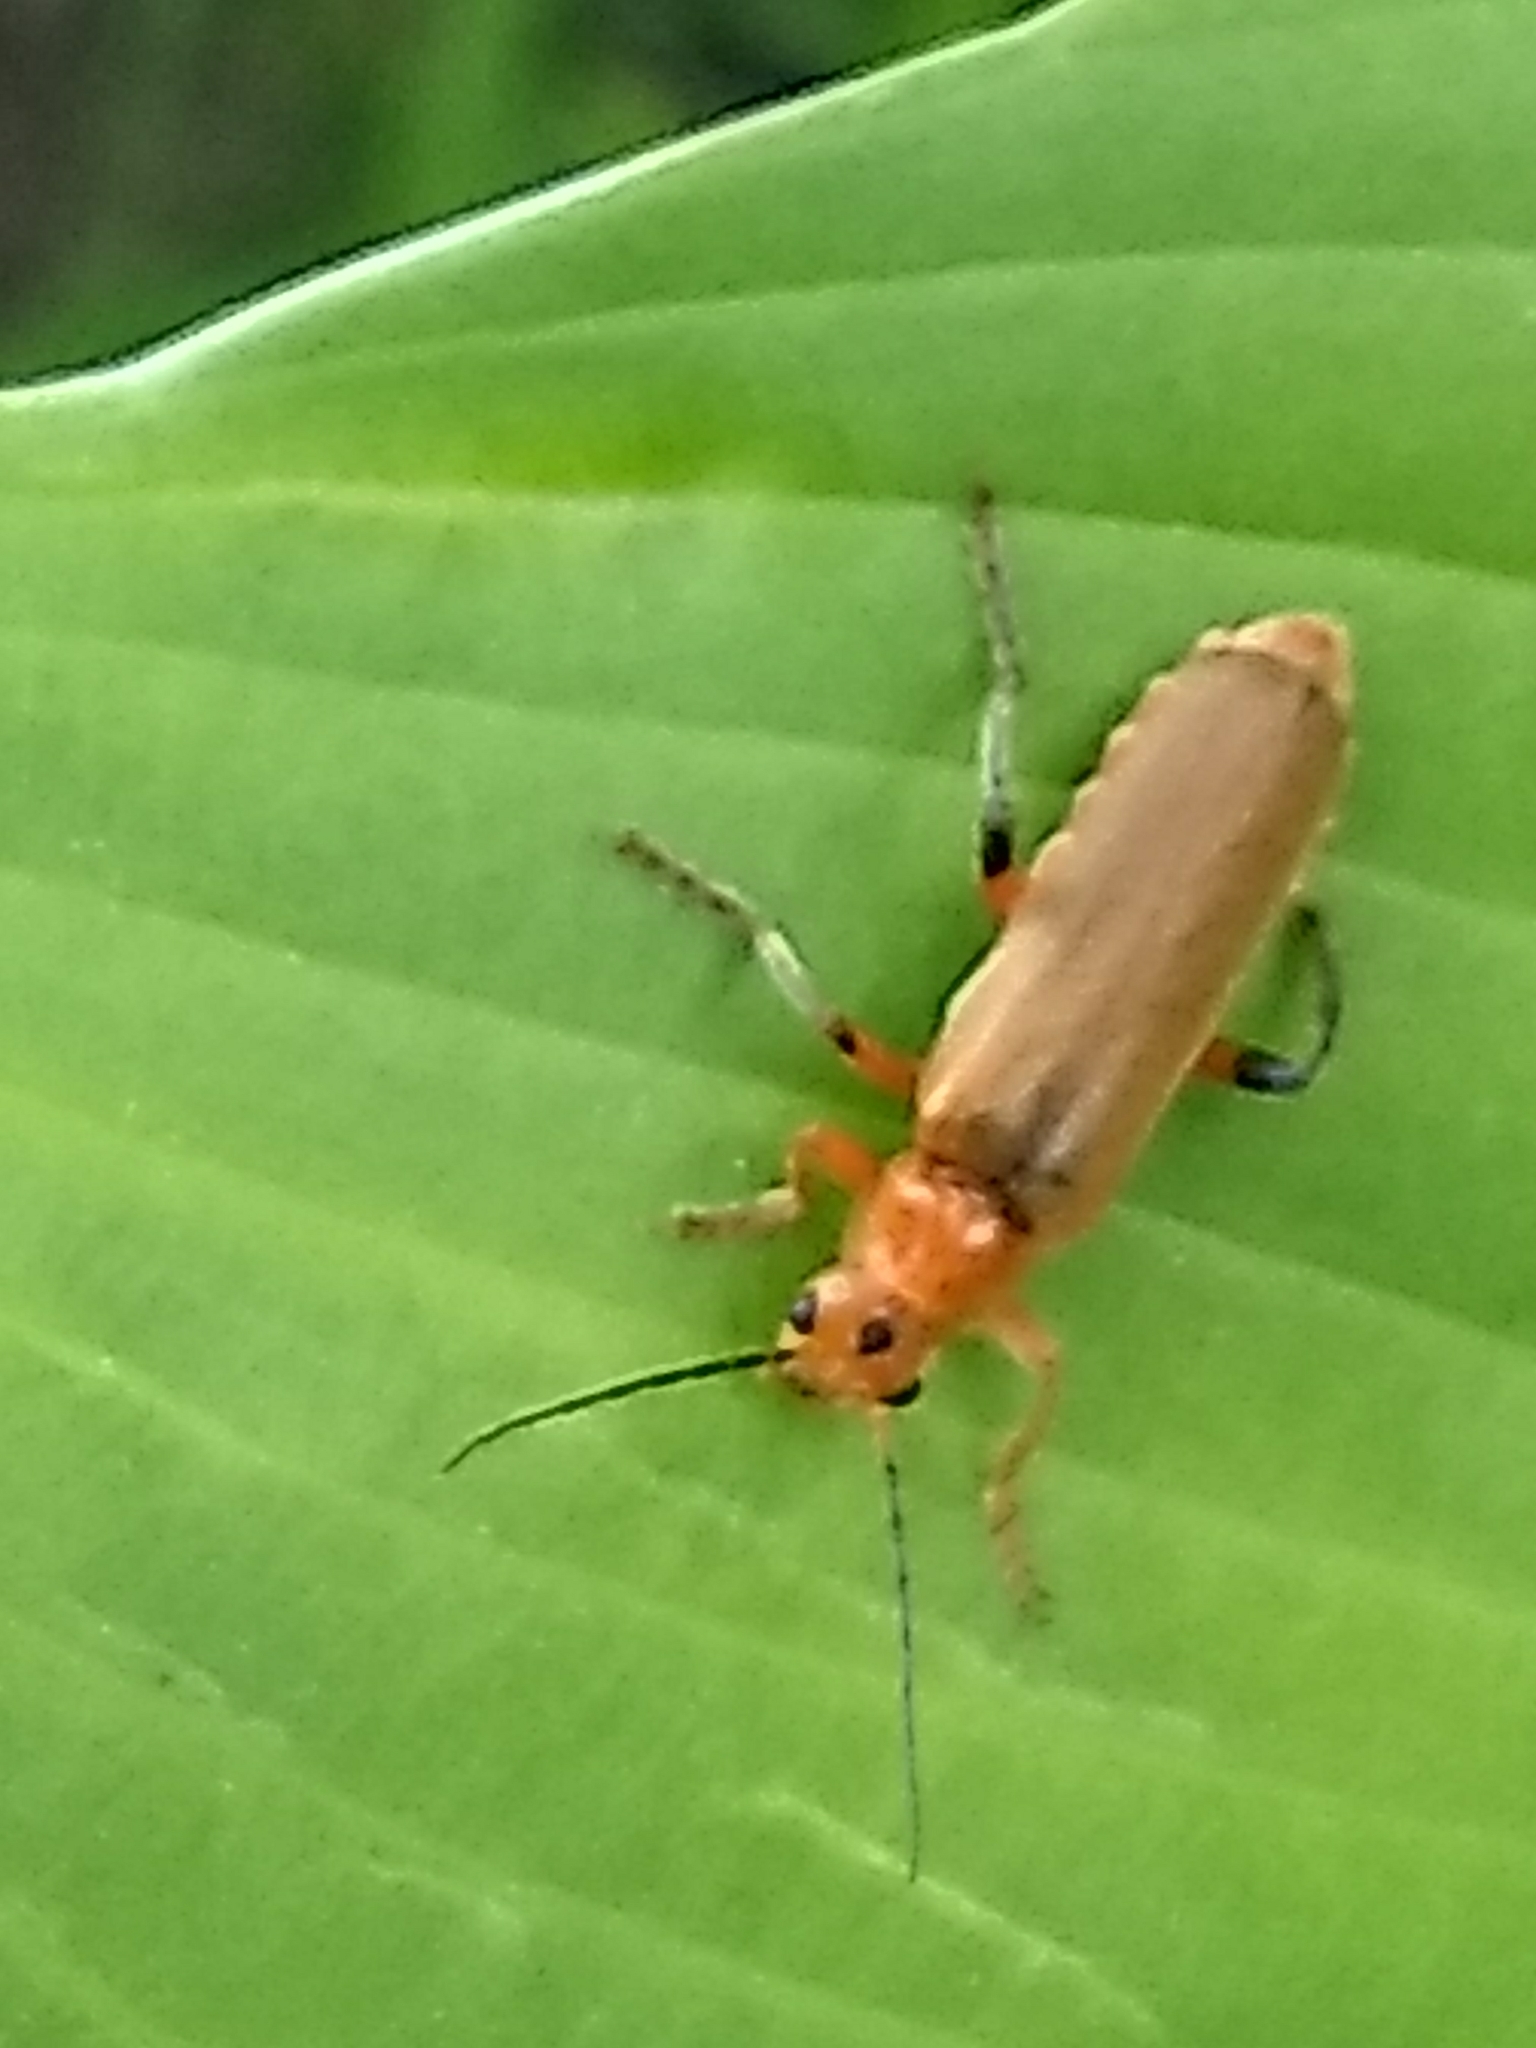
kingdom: Animalia
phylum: Arthropoda
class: Insecta
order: Coleoptera
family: Cantharidae
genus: Cantharis
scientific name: Cantharis livida
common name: Livid soldier beetle
